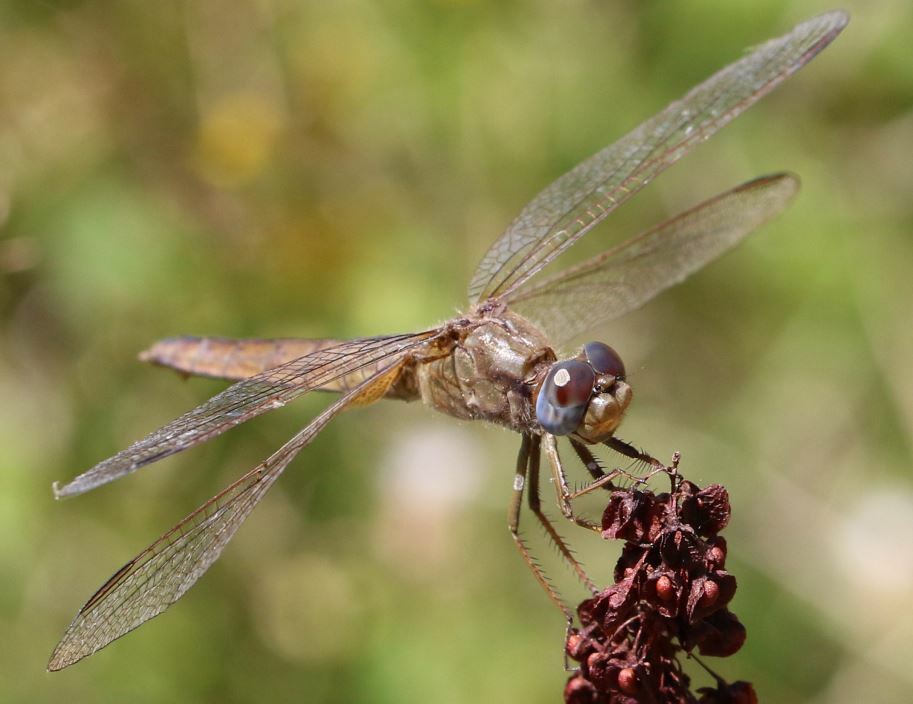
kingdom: Animalia
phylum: Arthropoda
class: Insecta
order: Odonata
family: Libellulidae
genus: Crocothemis
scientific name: Crocothemis erythraea
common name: Scarlet dragonfly
